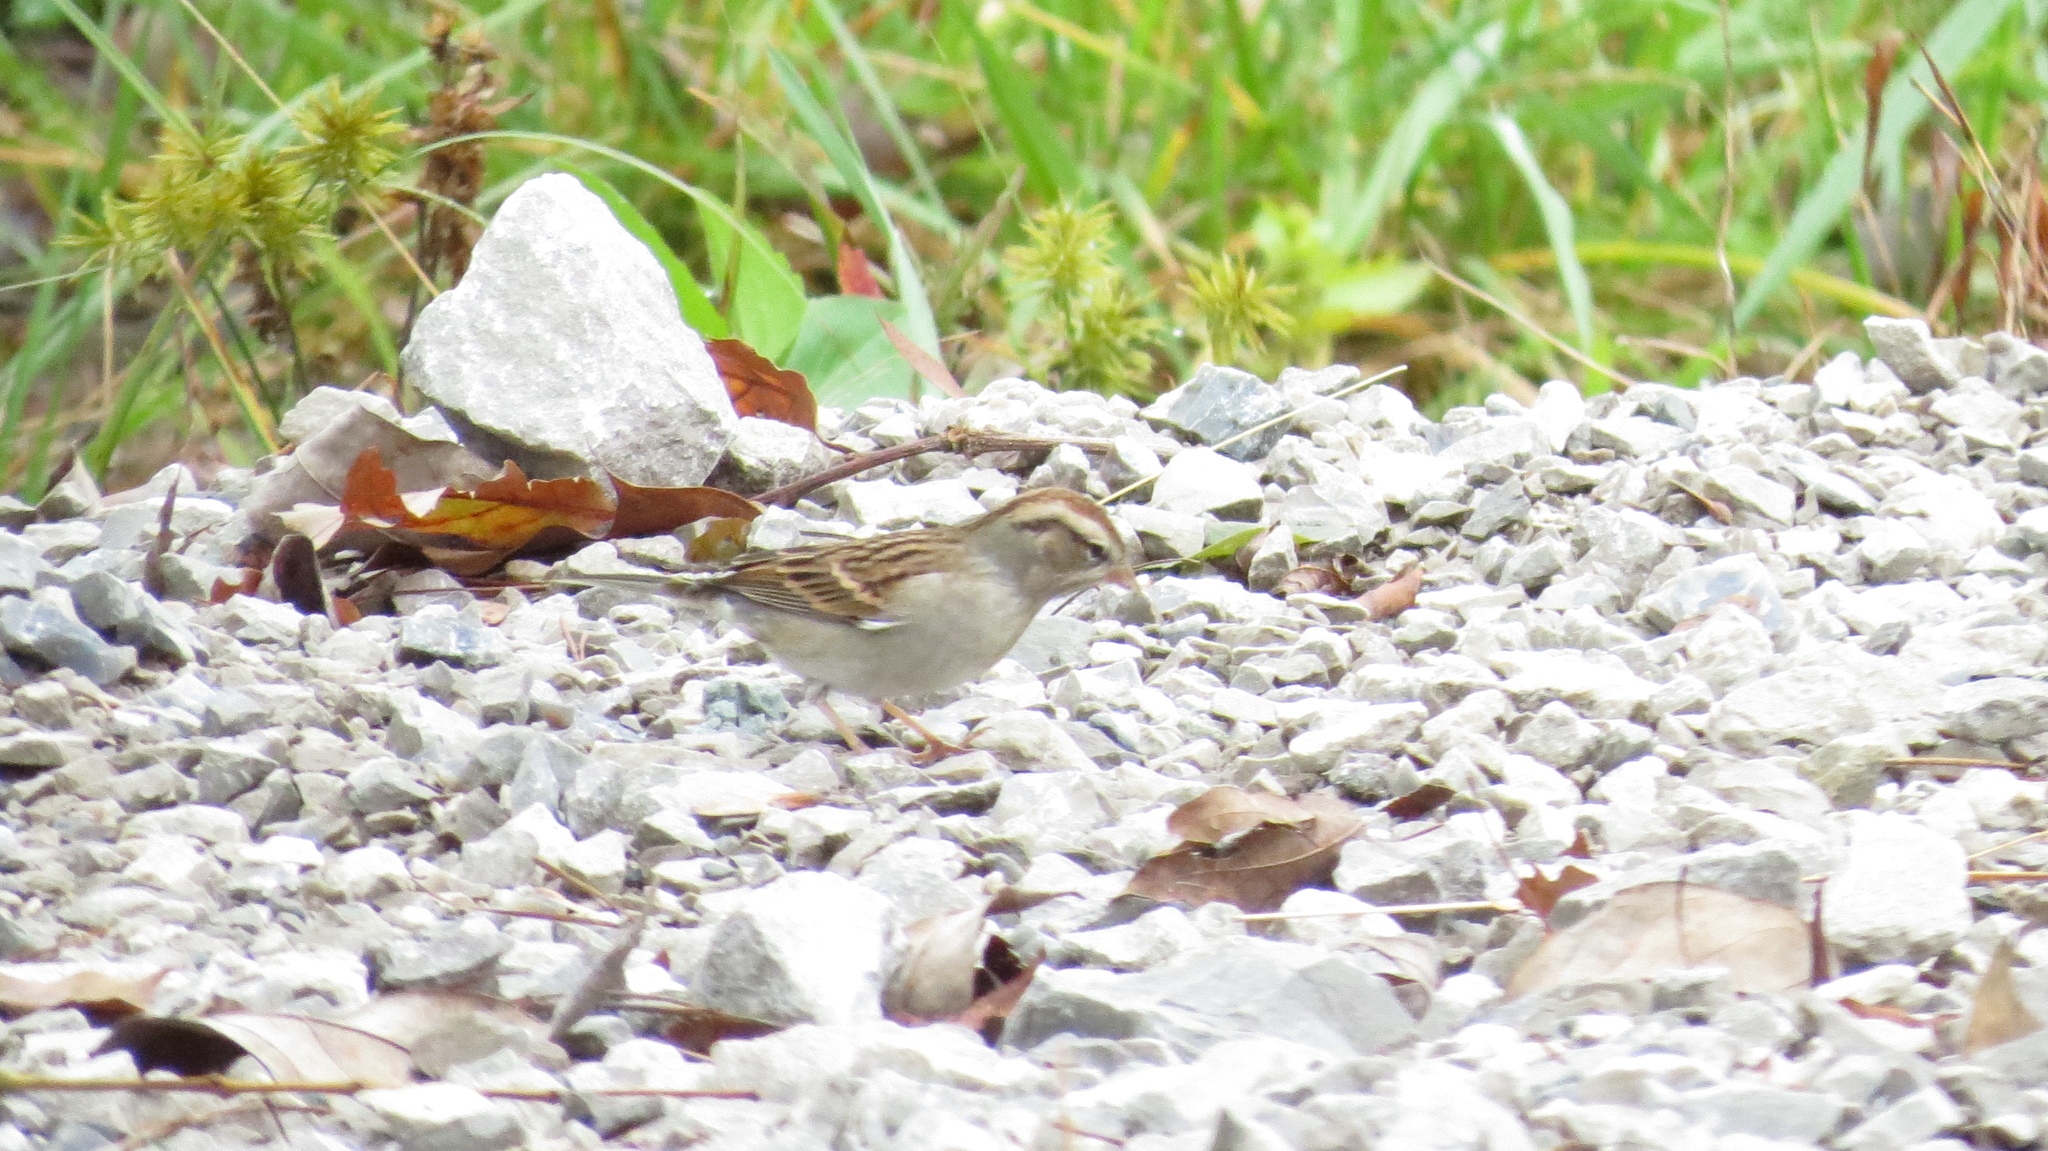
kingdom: Animalia
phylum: Chordata
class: Aves
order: Passeriformes
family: Passerellidae
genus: Spizella
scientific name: Spizella passerina
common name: Chipping sparrow
